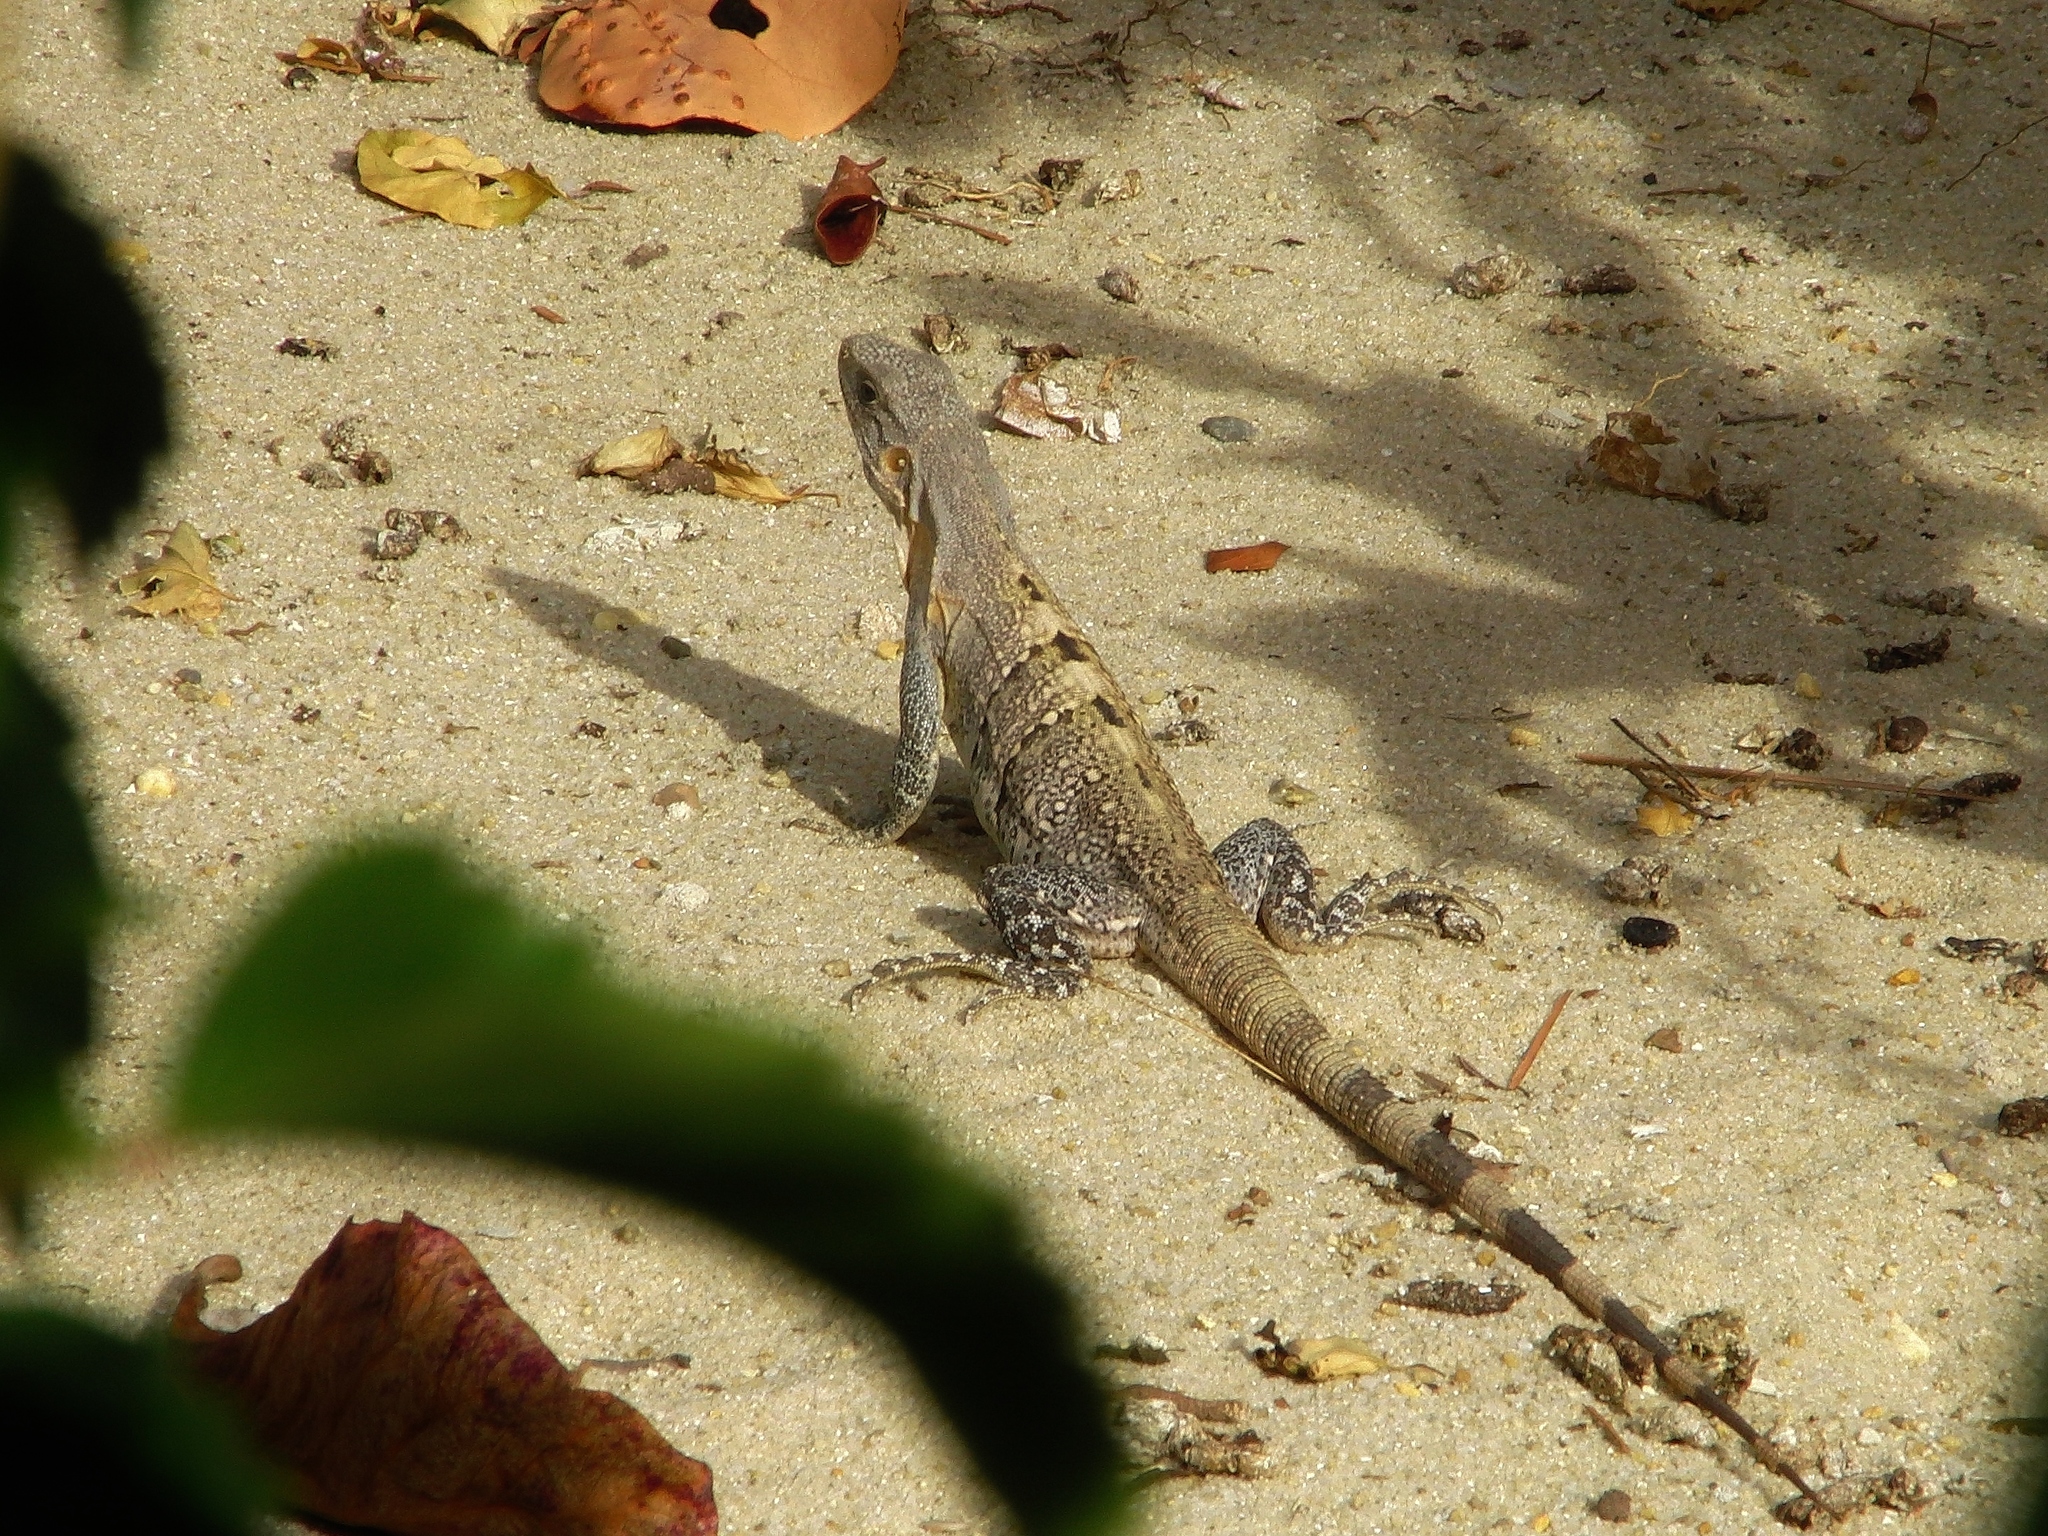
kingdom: Animalia
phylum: Chordata
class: Squamata
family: Iguanidae
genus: Ctenosaura
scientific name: Ctenosaura similis
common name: Black spiny-tailed iguana
